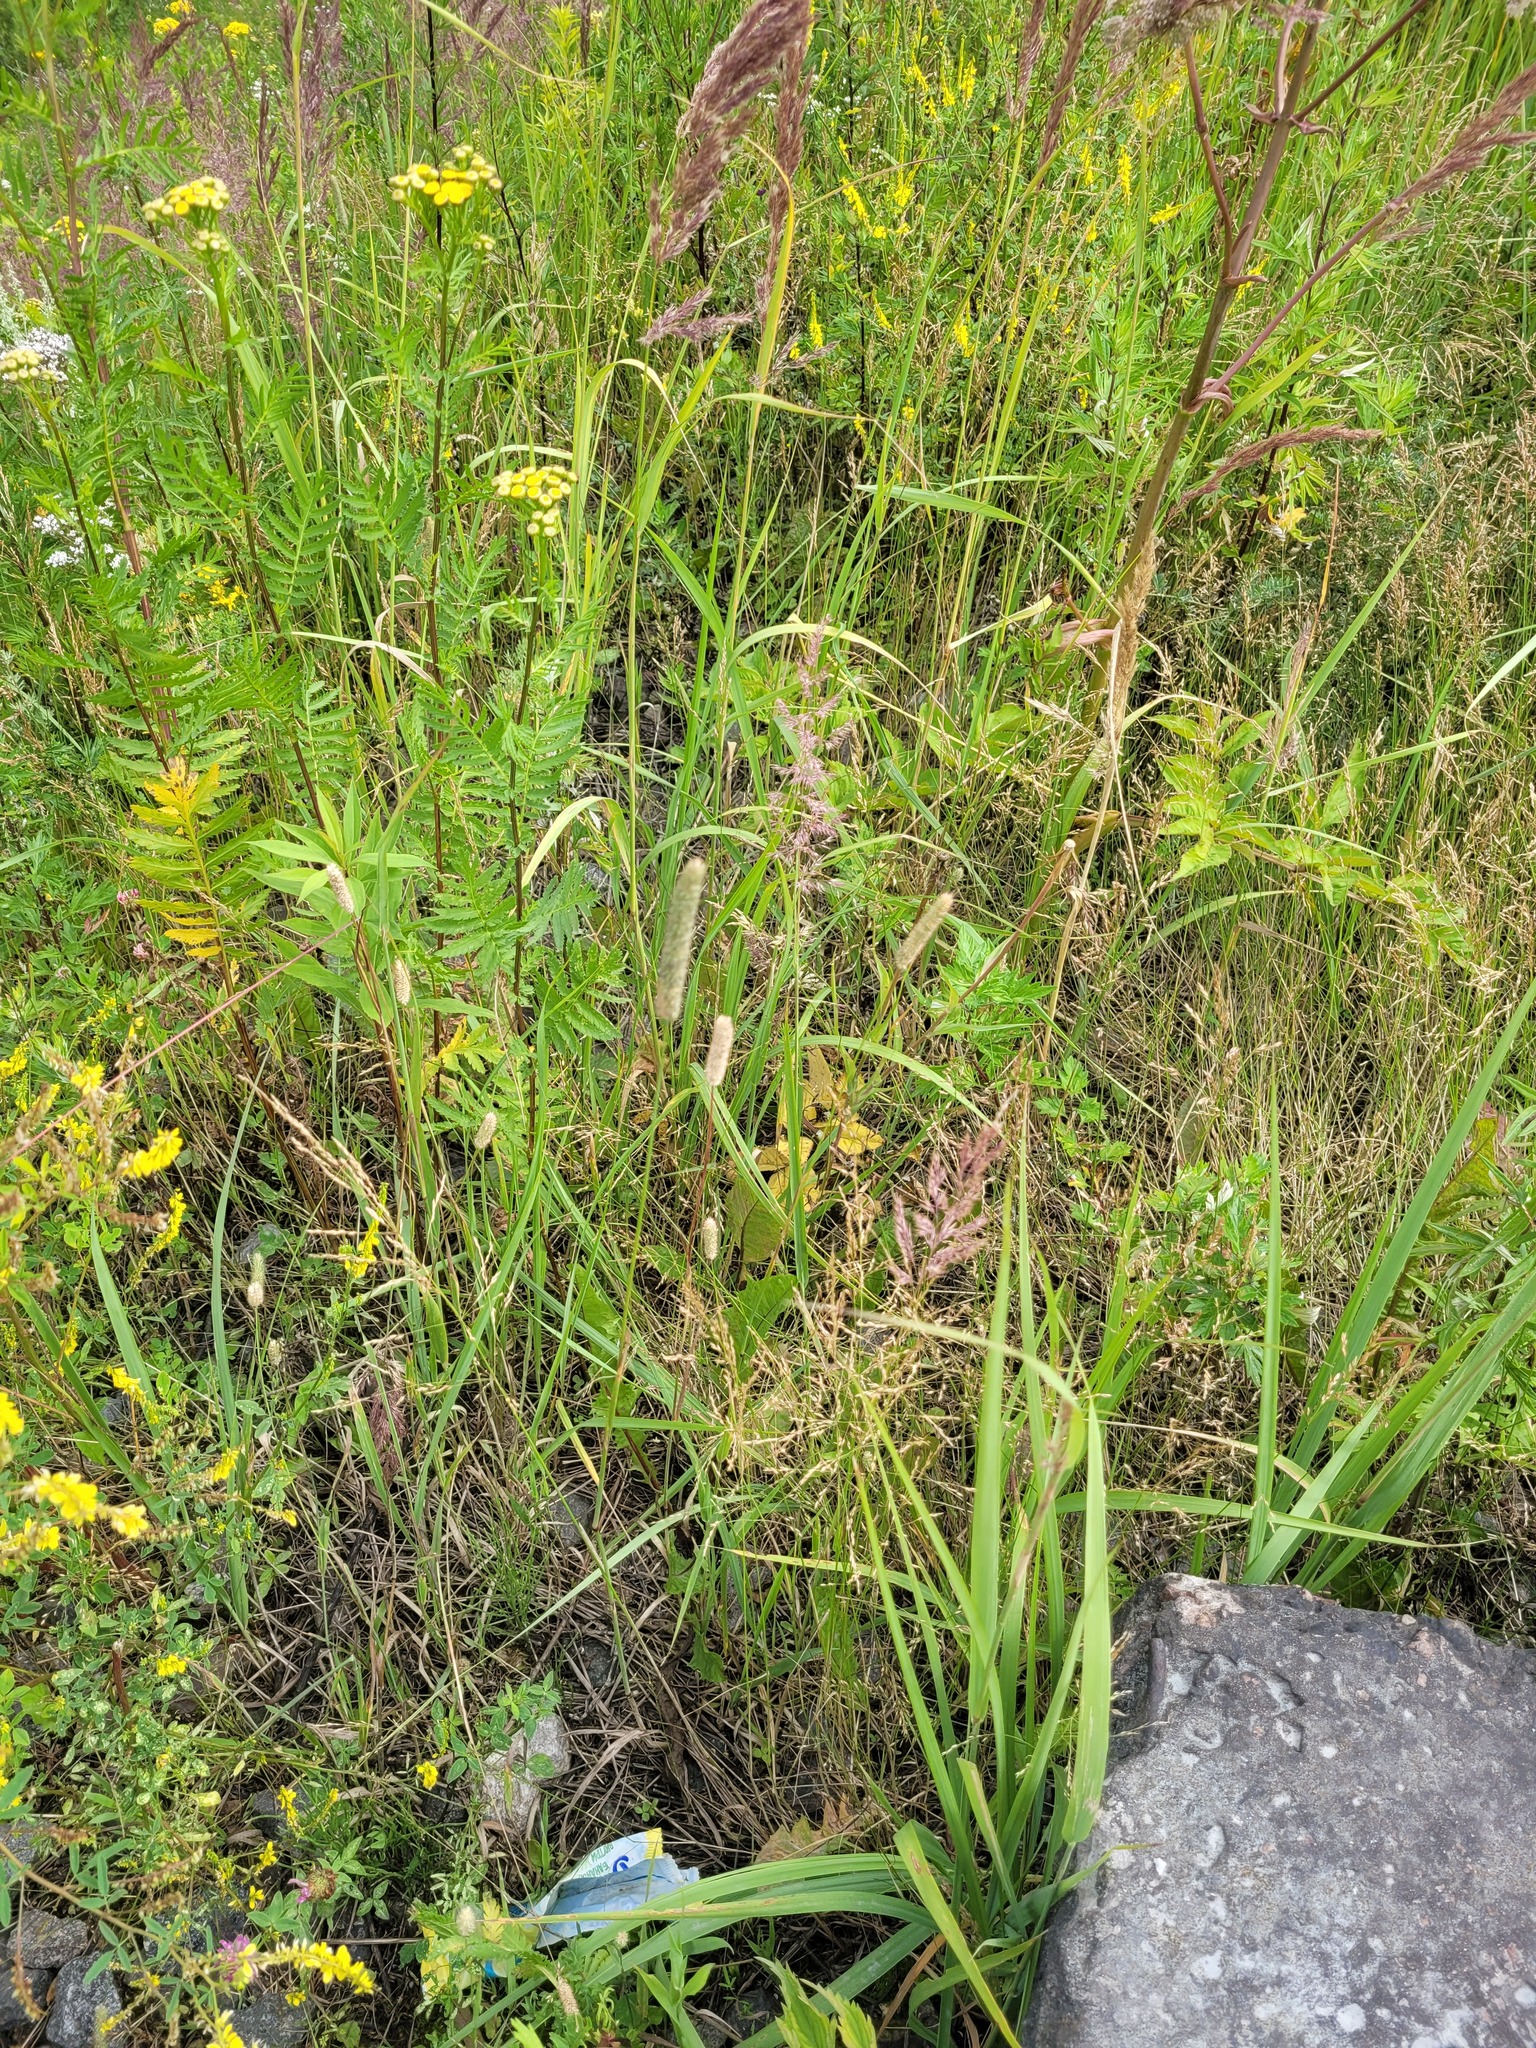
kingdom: Plantae
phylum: Tracheophyta
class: Liliopsida
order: Poales
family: Poaceae
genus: Phleum
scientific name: Phleum pratense
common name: Timothy grass
